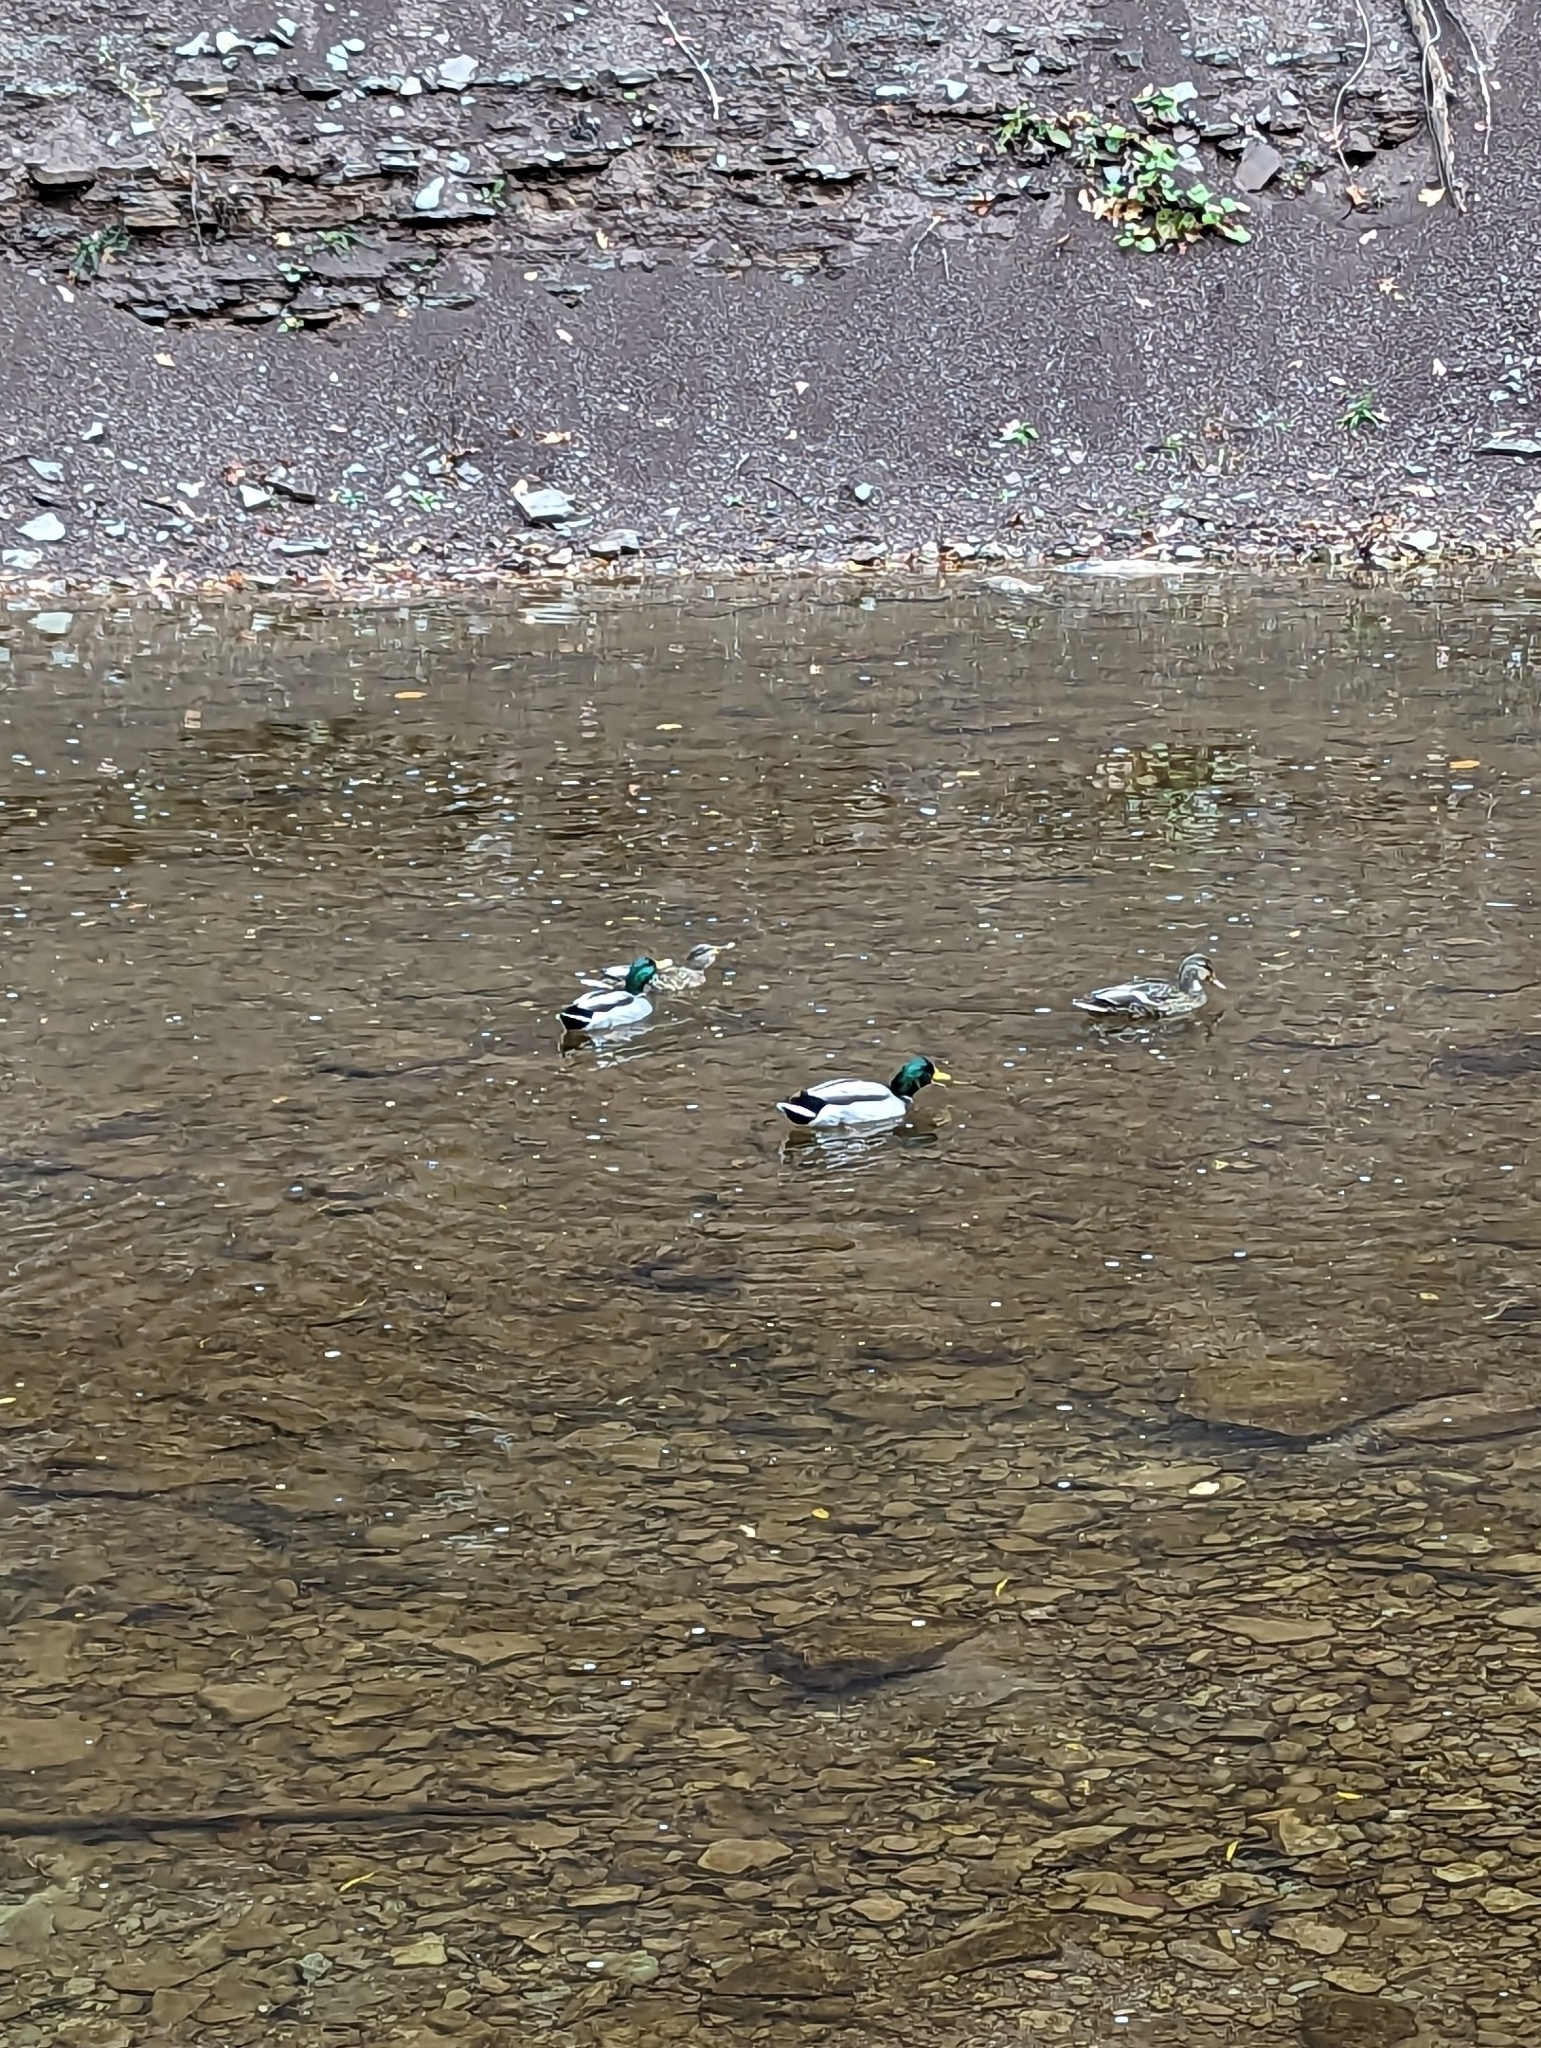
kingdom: Animalia
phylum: Chordata
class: Aves
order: Anseriformes
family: Anatidae
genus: Anas
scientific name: Anas platyrhynchos
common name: Mallard
